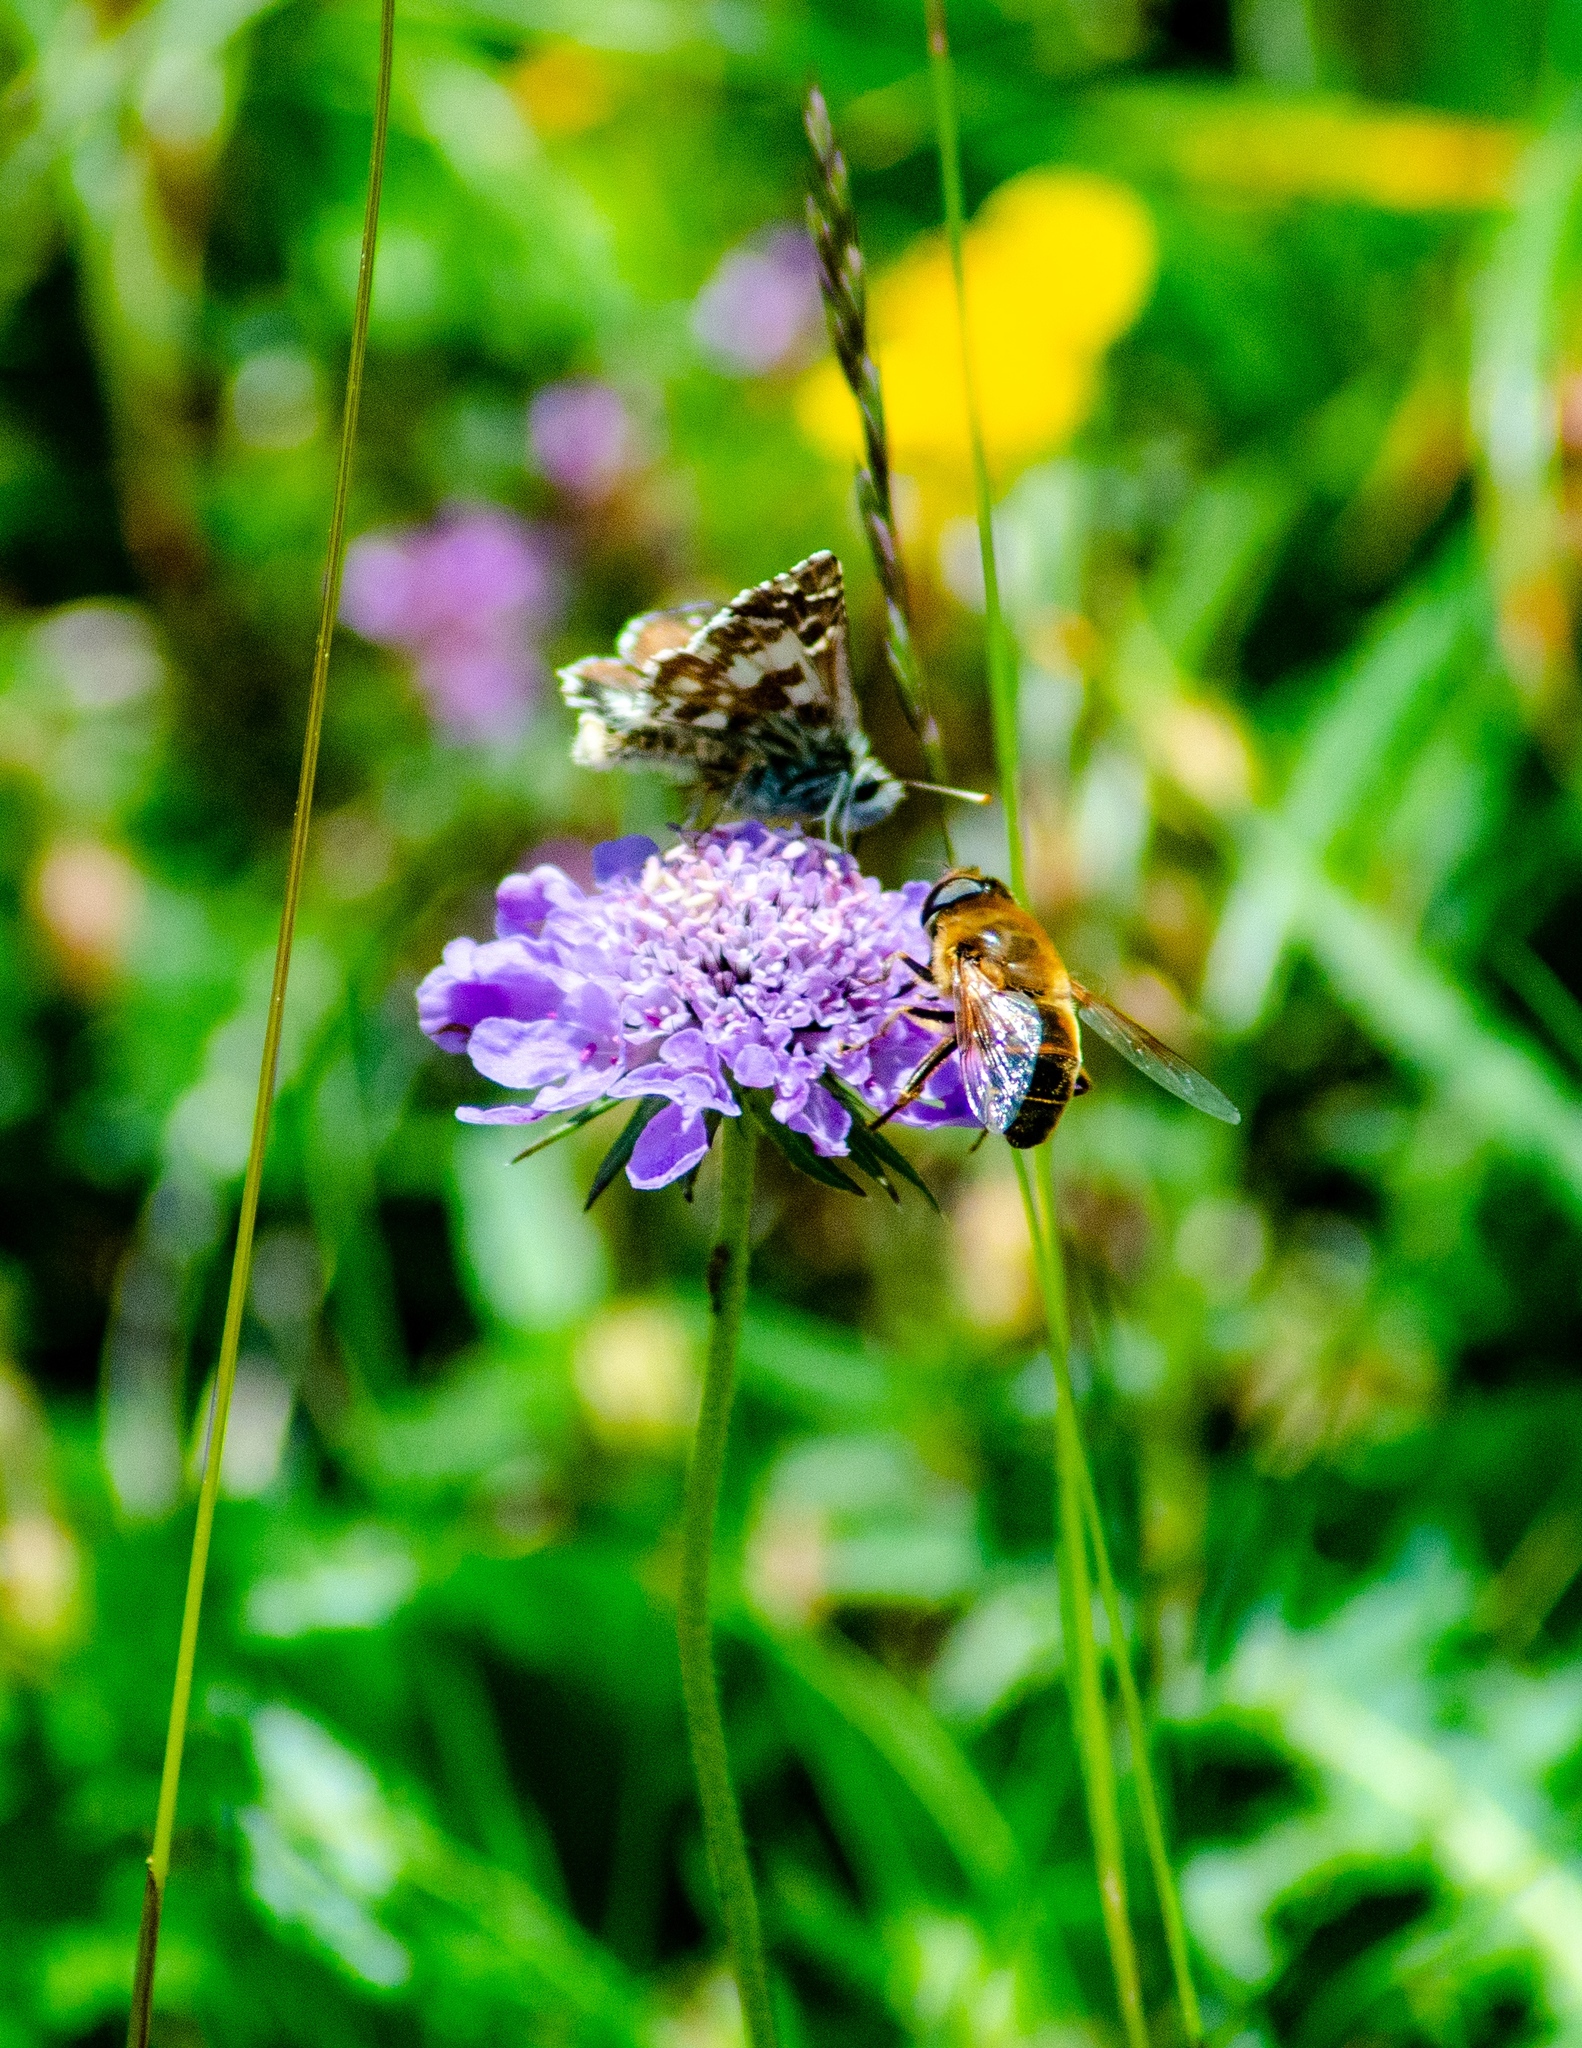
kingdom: Animalia
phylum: Arthropoda
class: Insecta
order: Diptera
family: Syrphidae
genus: Eristalis
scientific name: Eristalis tenax
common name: Drone fly
